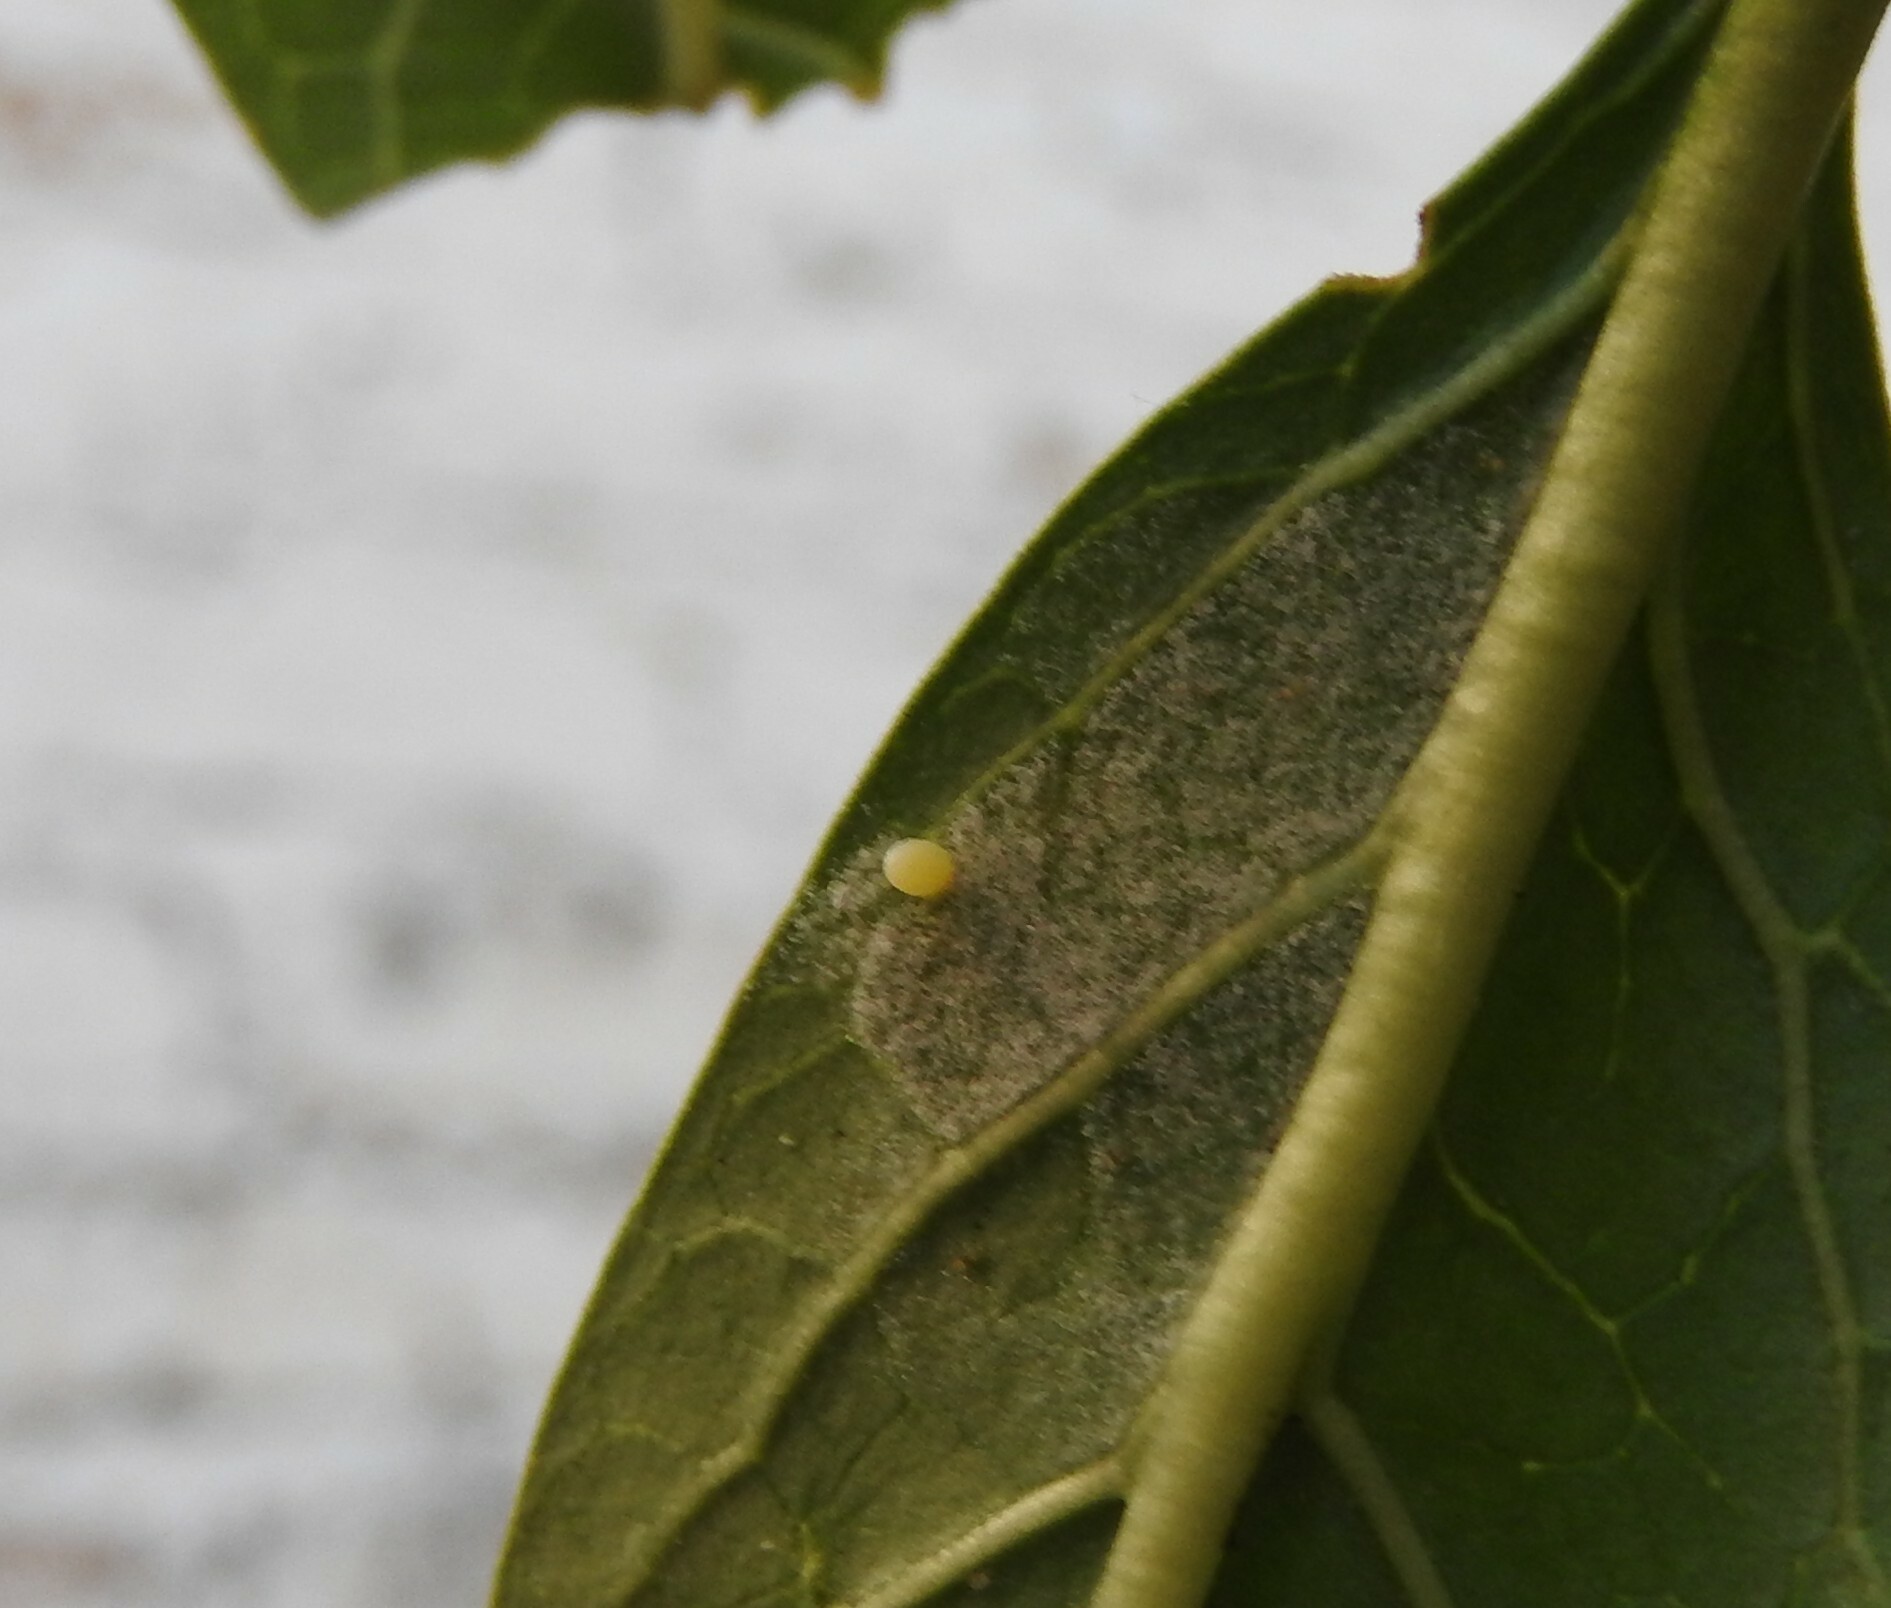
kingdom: Animalia
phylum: Arthropoda
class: Insecta
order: Lepidoptera
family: Nymphalidae
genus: Danaus
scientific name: Danaus plexippus
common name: Monarch
